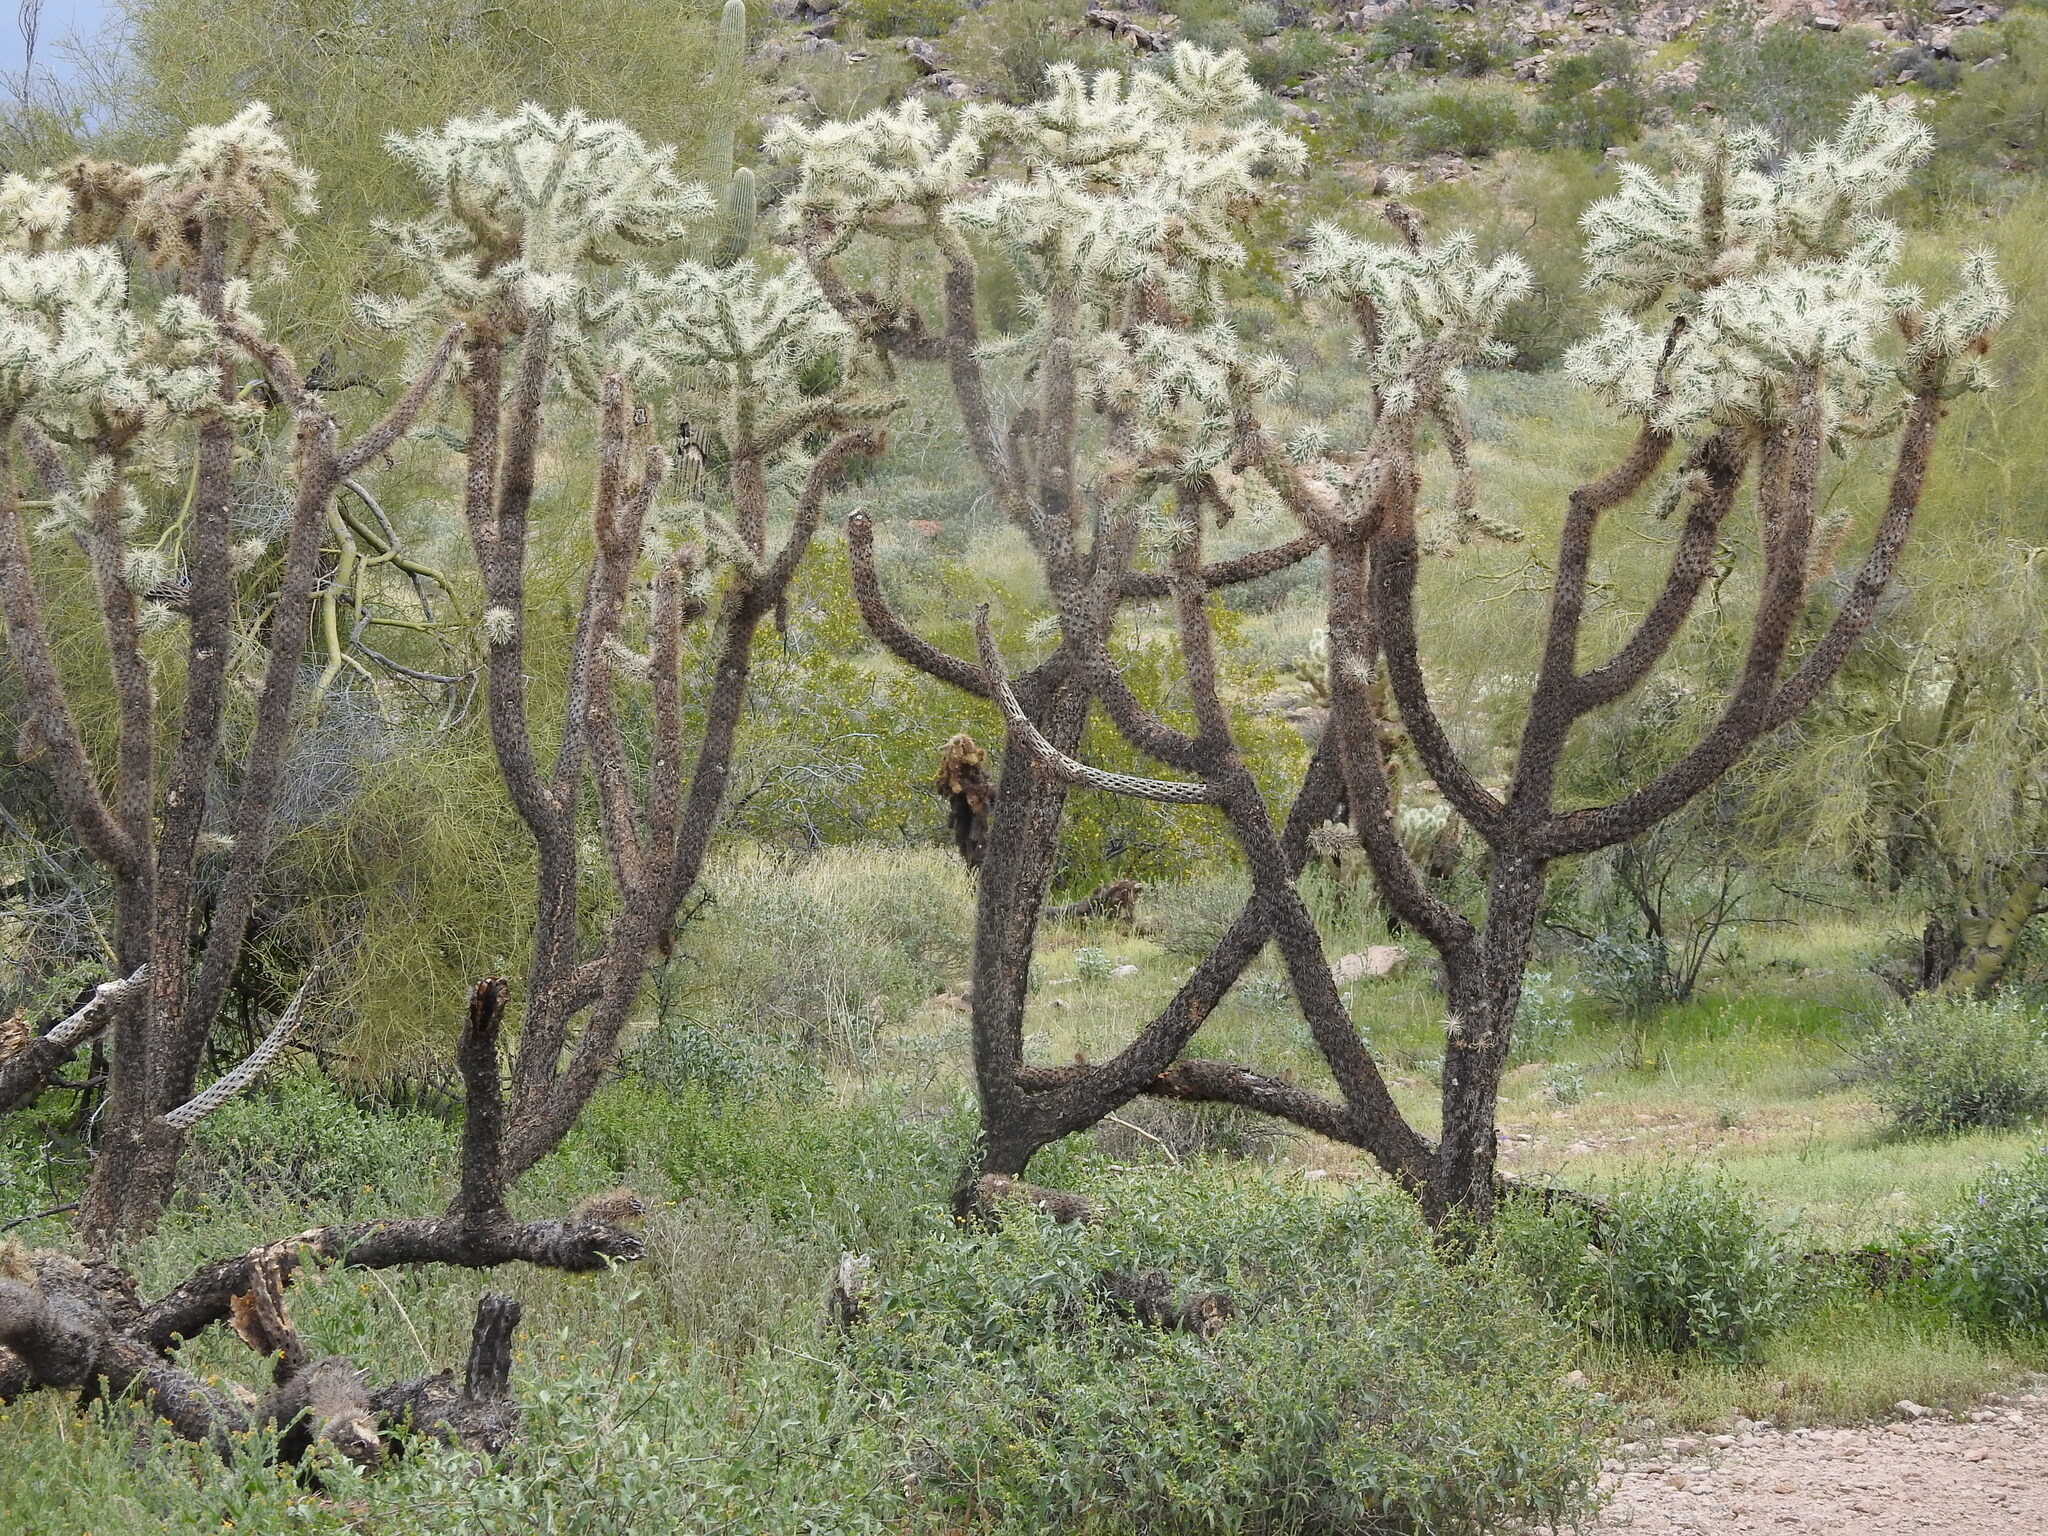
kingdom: Plantae
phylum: Tracheophyta
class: Magnoliopsida
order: Caryophyllales
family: Cactaceae
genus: Cylindropuntia
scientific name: Cylindropuntia fulgida
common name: Jumping cholla
